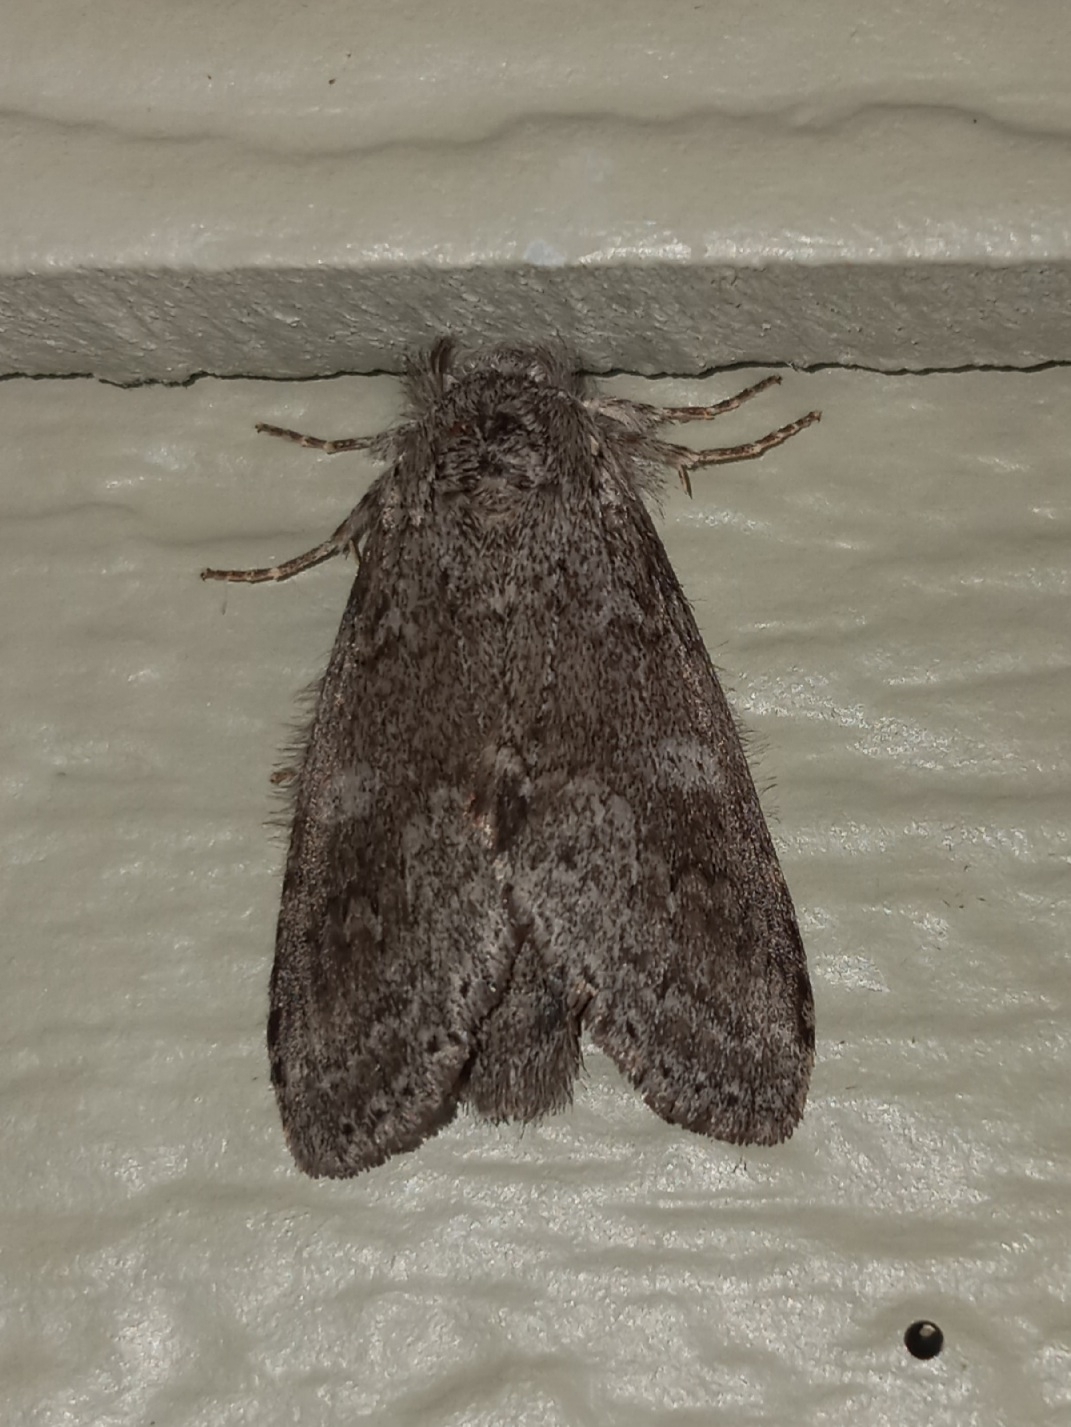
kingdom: Animalia
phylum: Arthropoda
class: Insecta
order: Lepidoptera
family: Notodontidae
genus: Lochmaeus
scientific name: Lochmaeus manteo
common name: Variable oakleaf caterpillar moth
